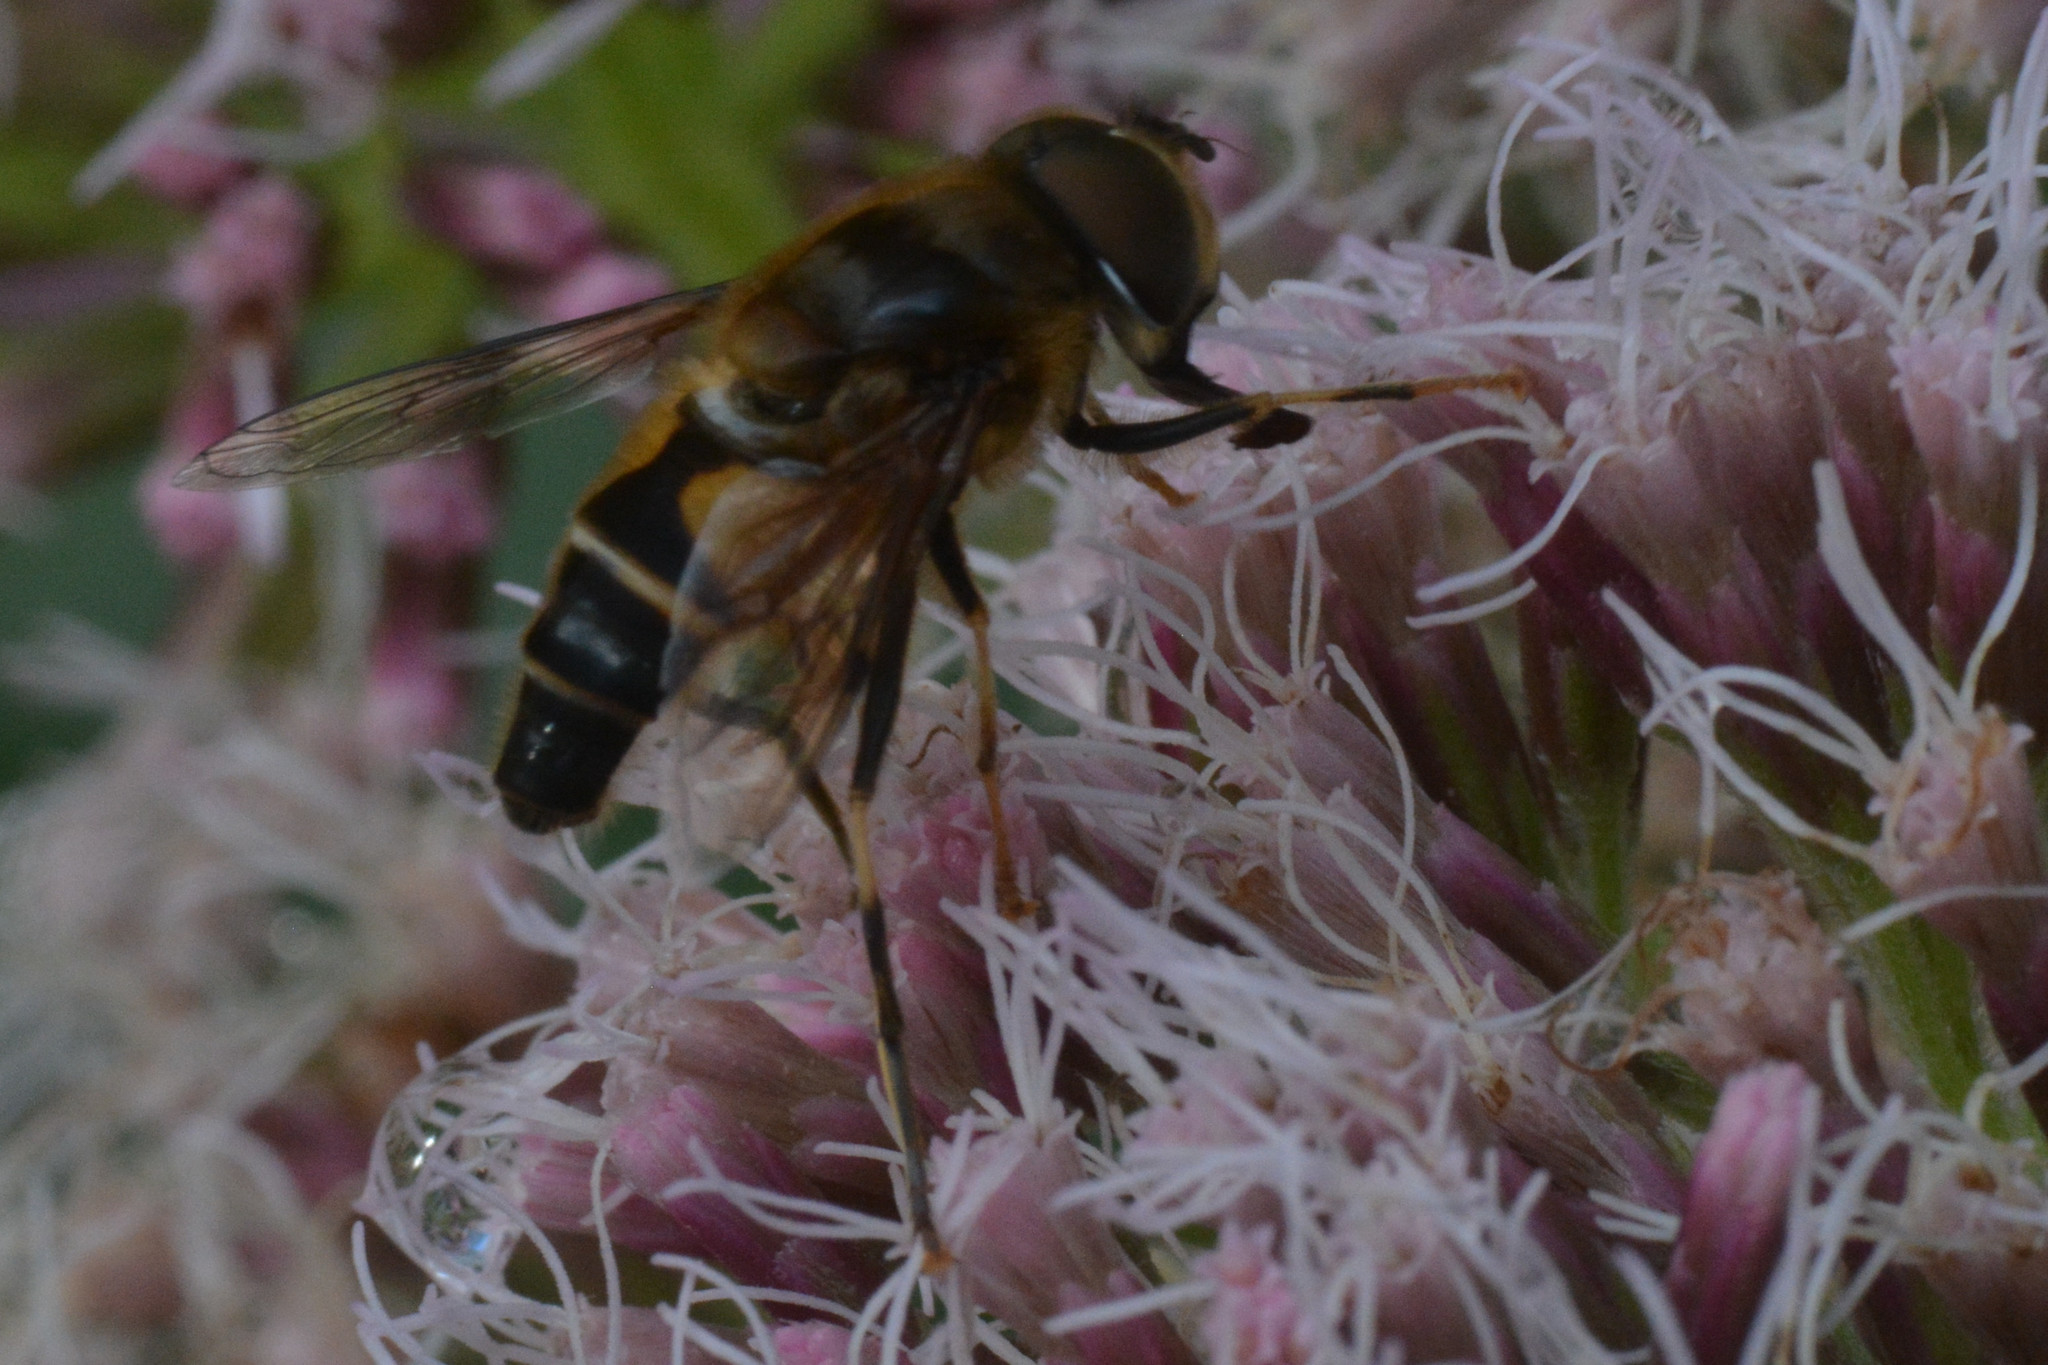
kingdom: Animalia
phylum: Arthropoda
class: Insecta
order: Diptera
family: Syrphidae
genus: Eristalis
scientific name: Eristalis pertinax
